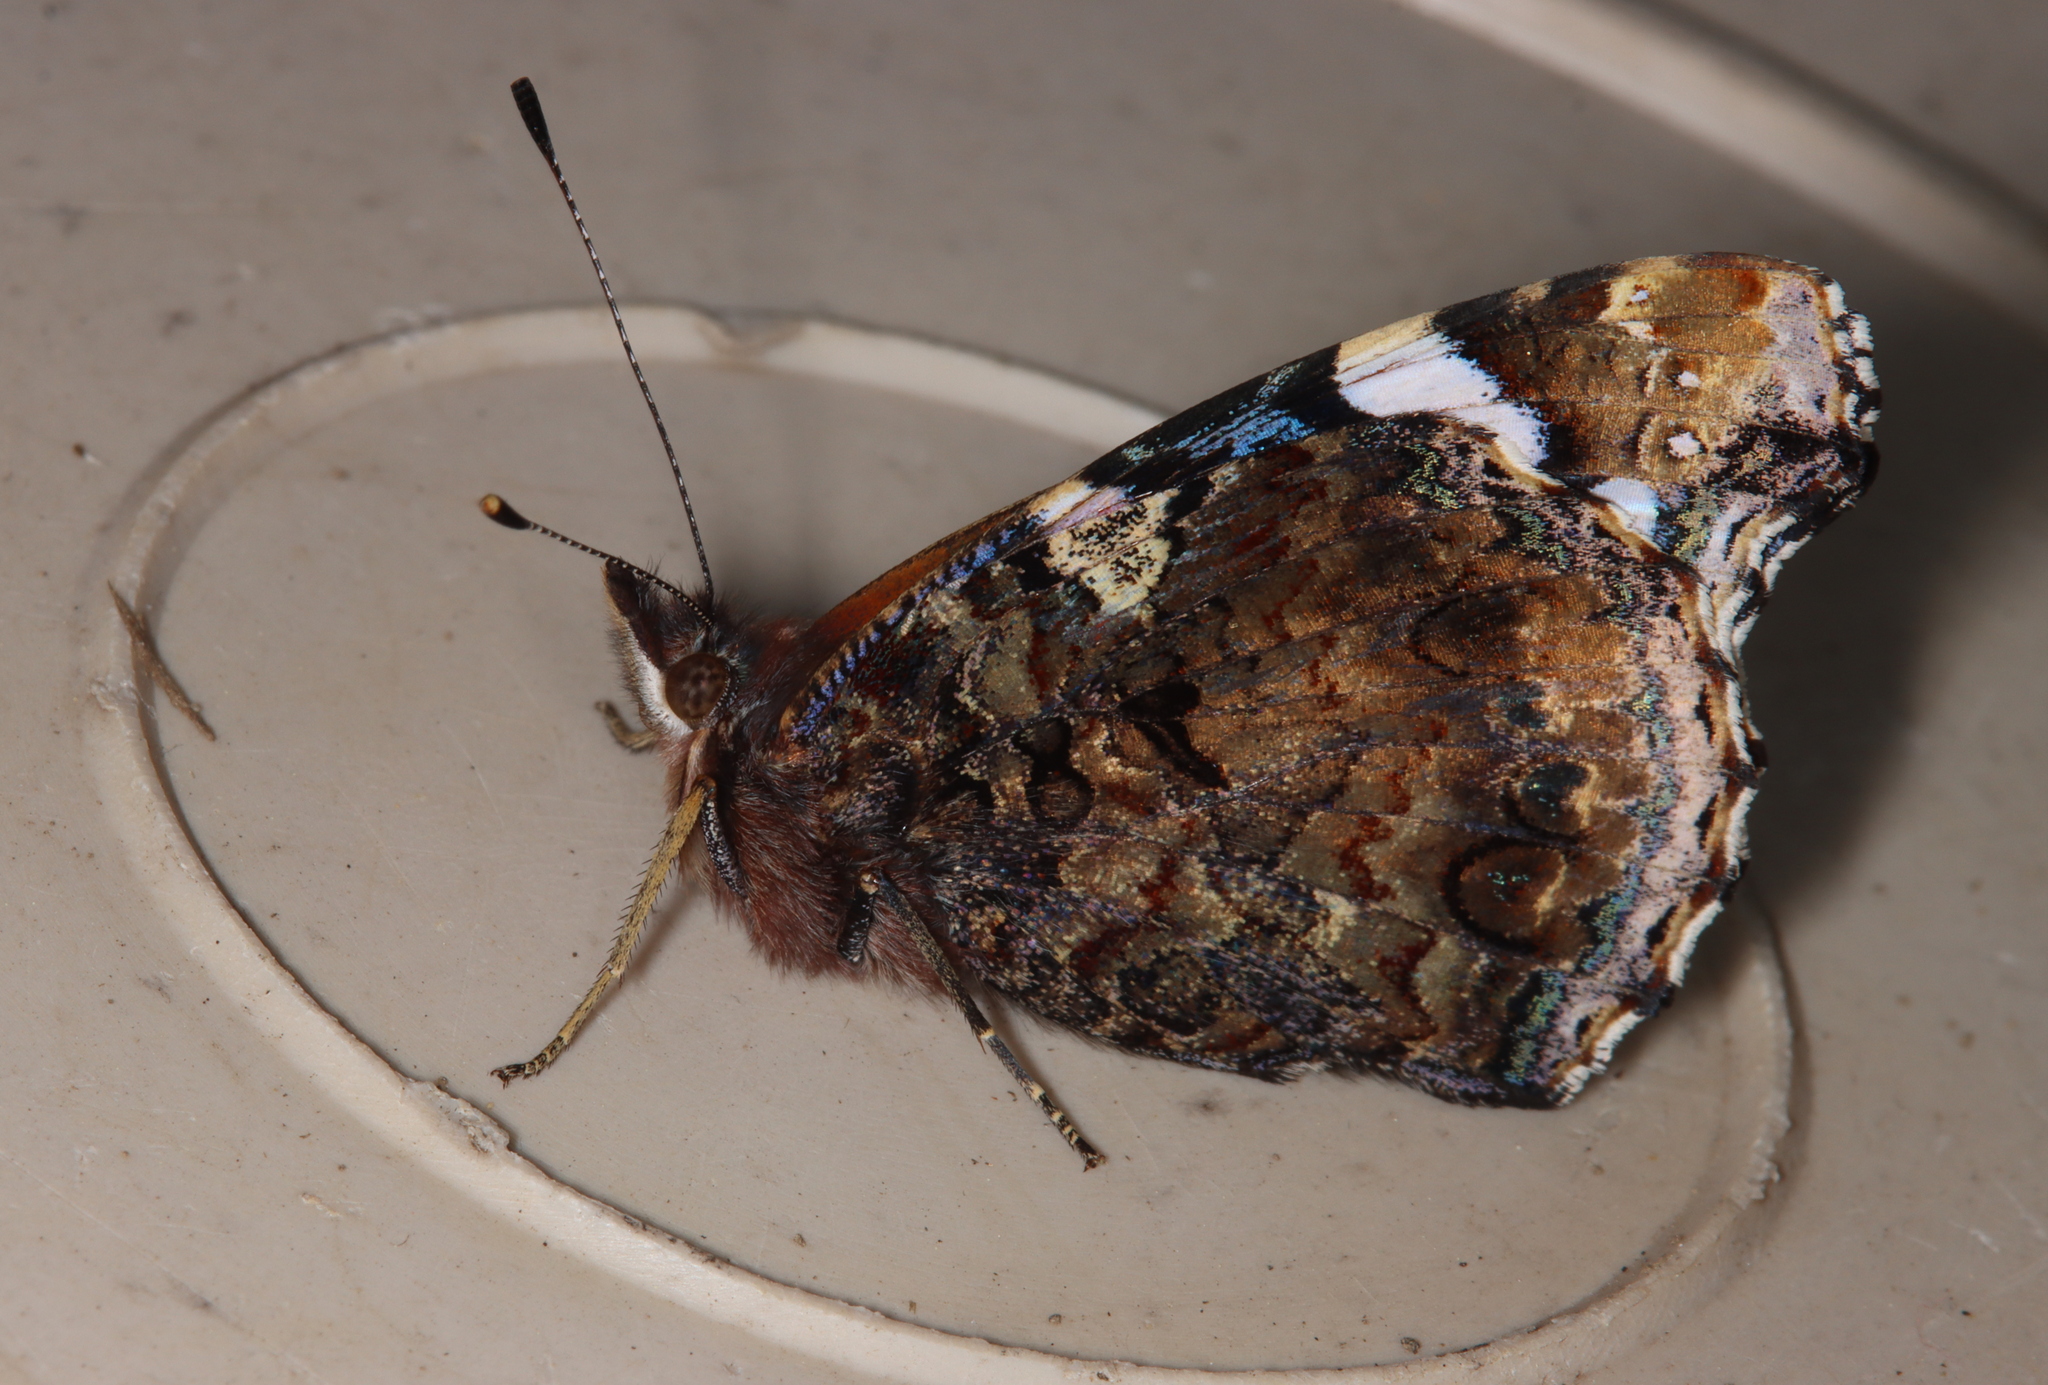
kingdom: Animalia
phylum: Arthropoda
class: Insecta
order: Lepidoptera
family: Nymphalidae
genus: Vanessa
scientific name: Vanessa atalanta
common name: Red admiral
